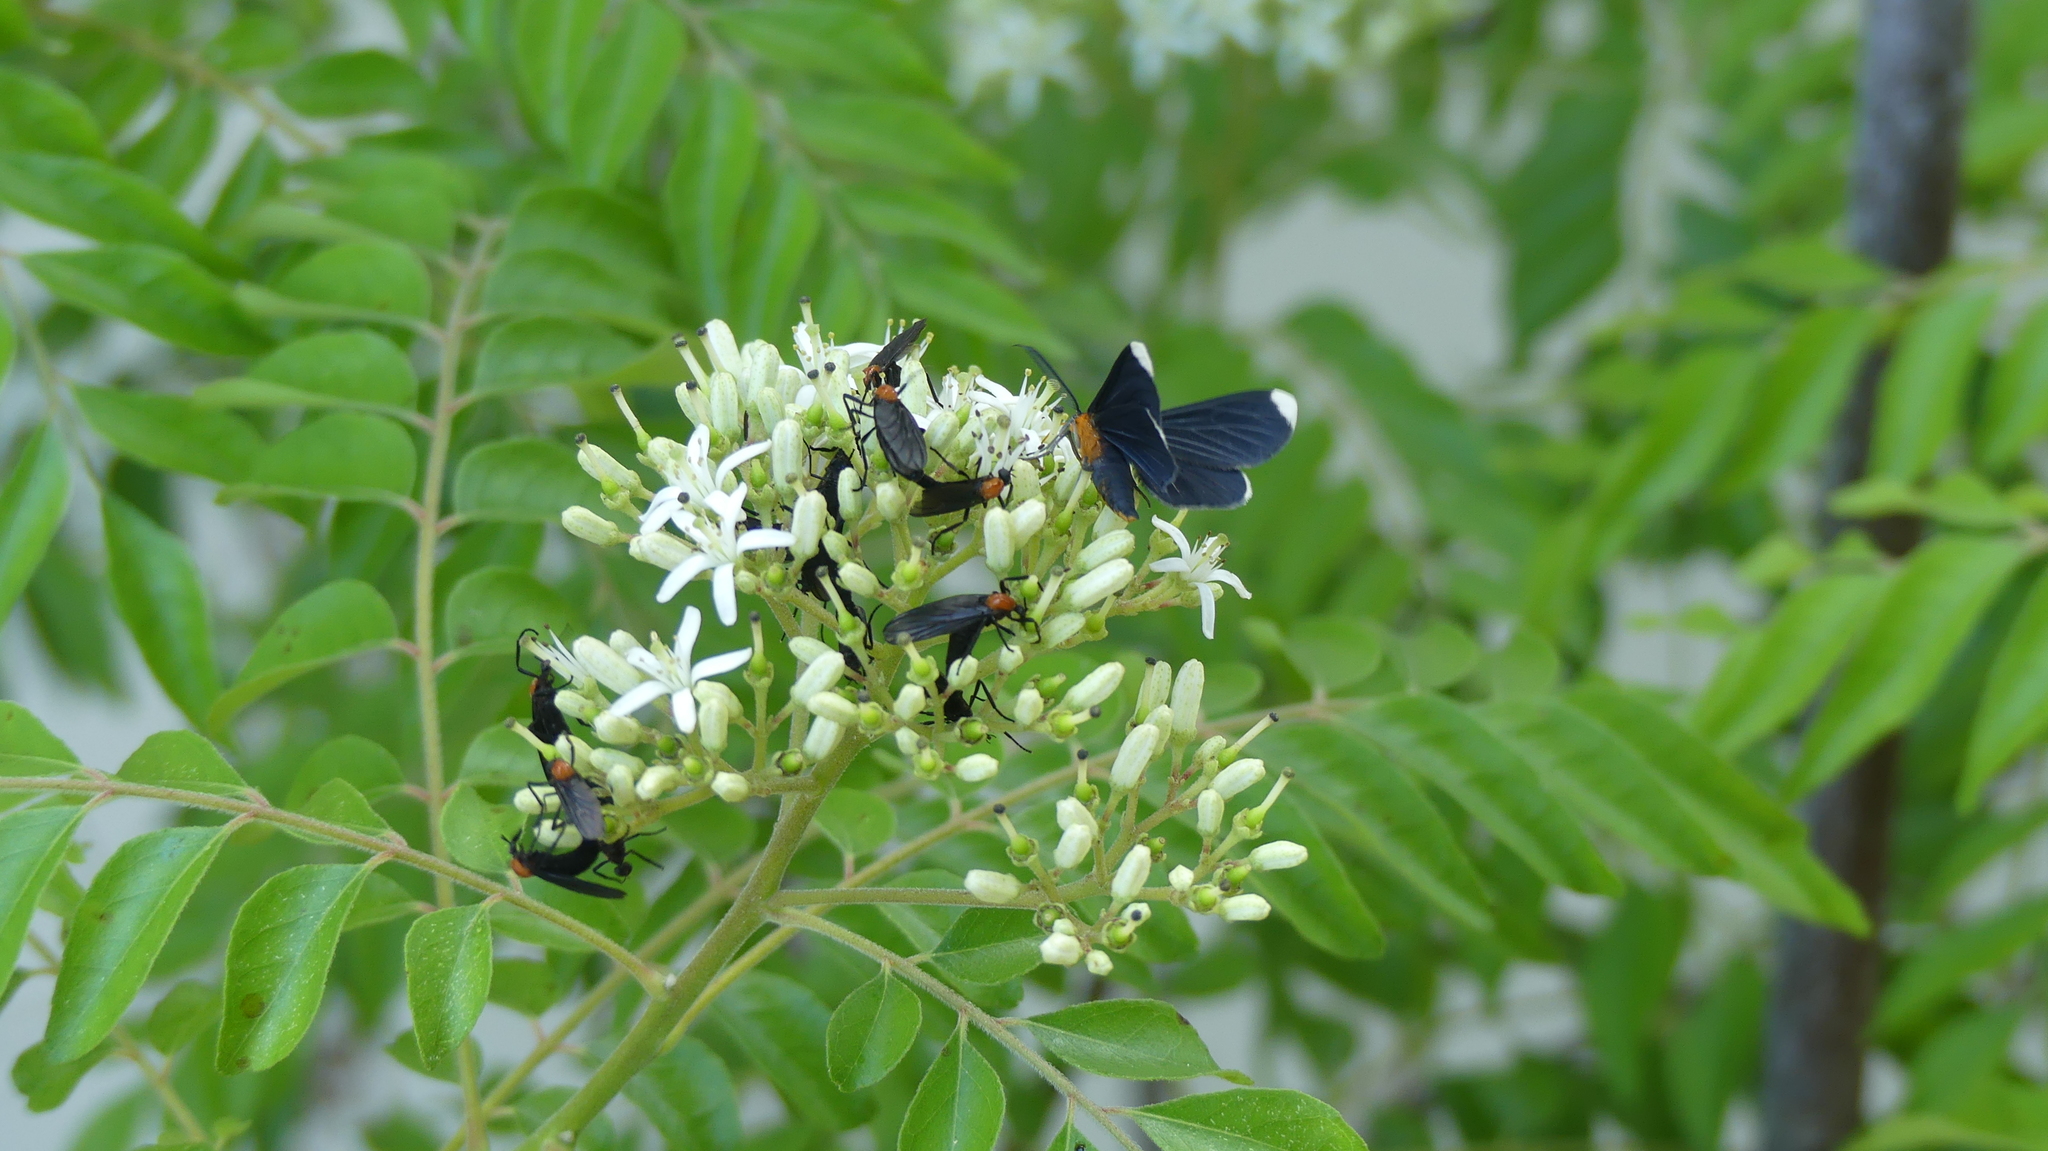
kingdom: Animalia
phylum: Arthropoda
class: Insecta
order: Lepidoptera
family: Geometridae
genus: Melanchroia
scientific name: Melanchroia chephise
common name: White-tipped black
